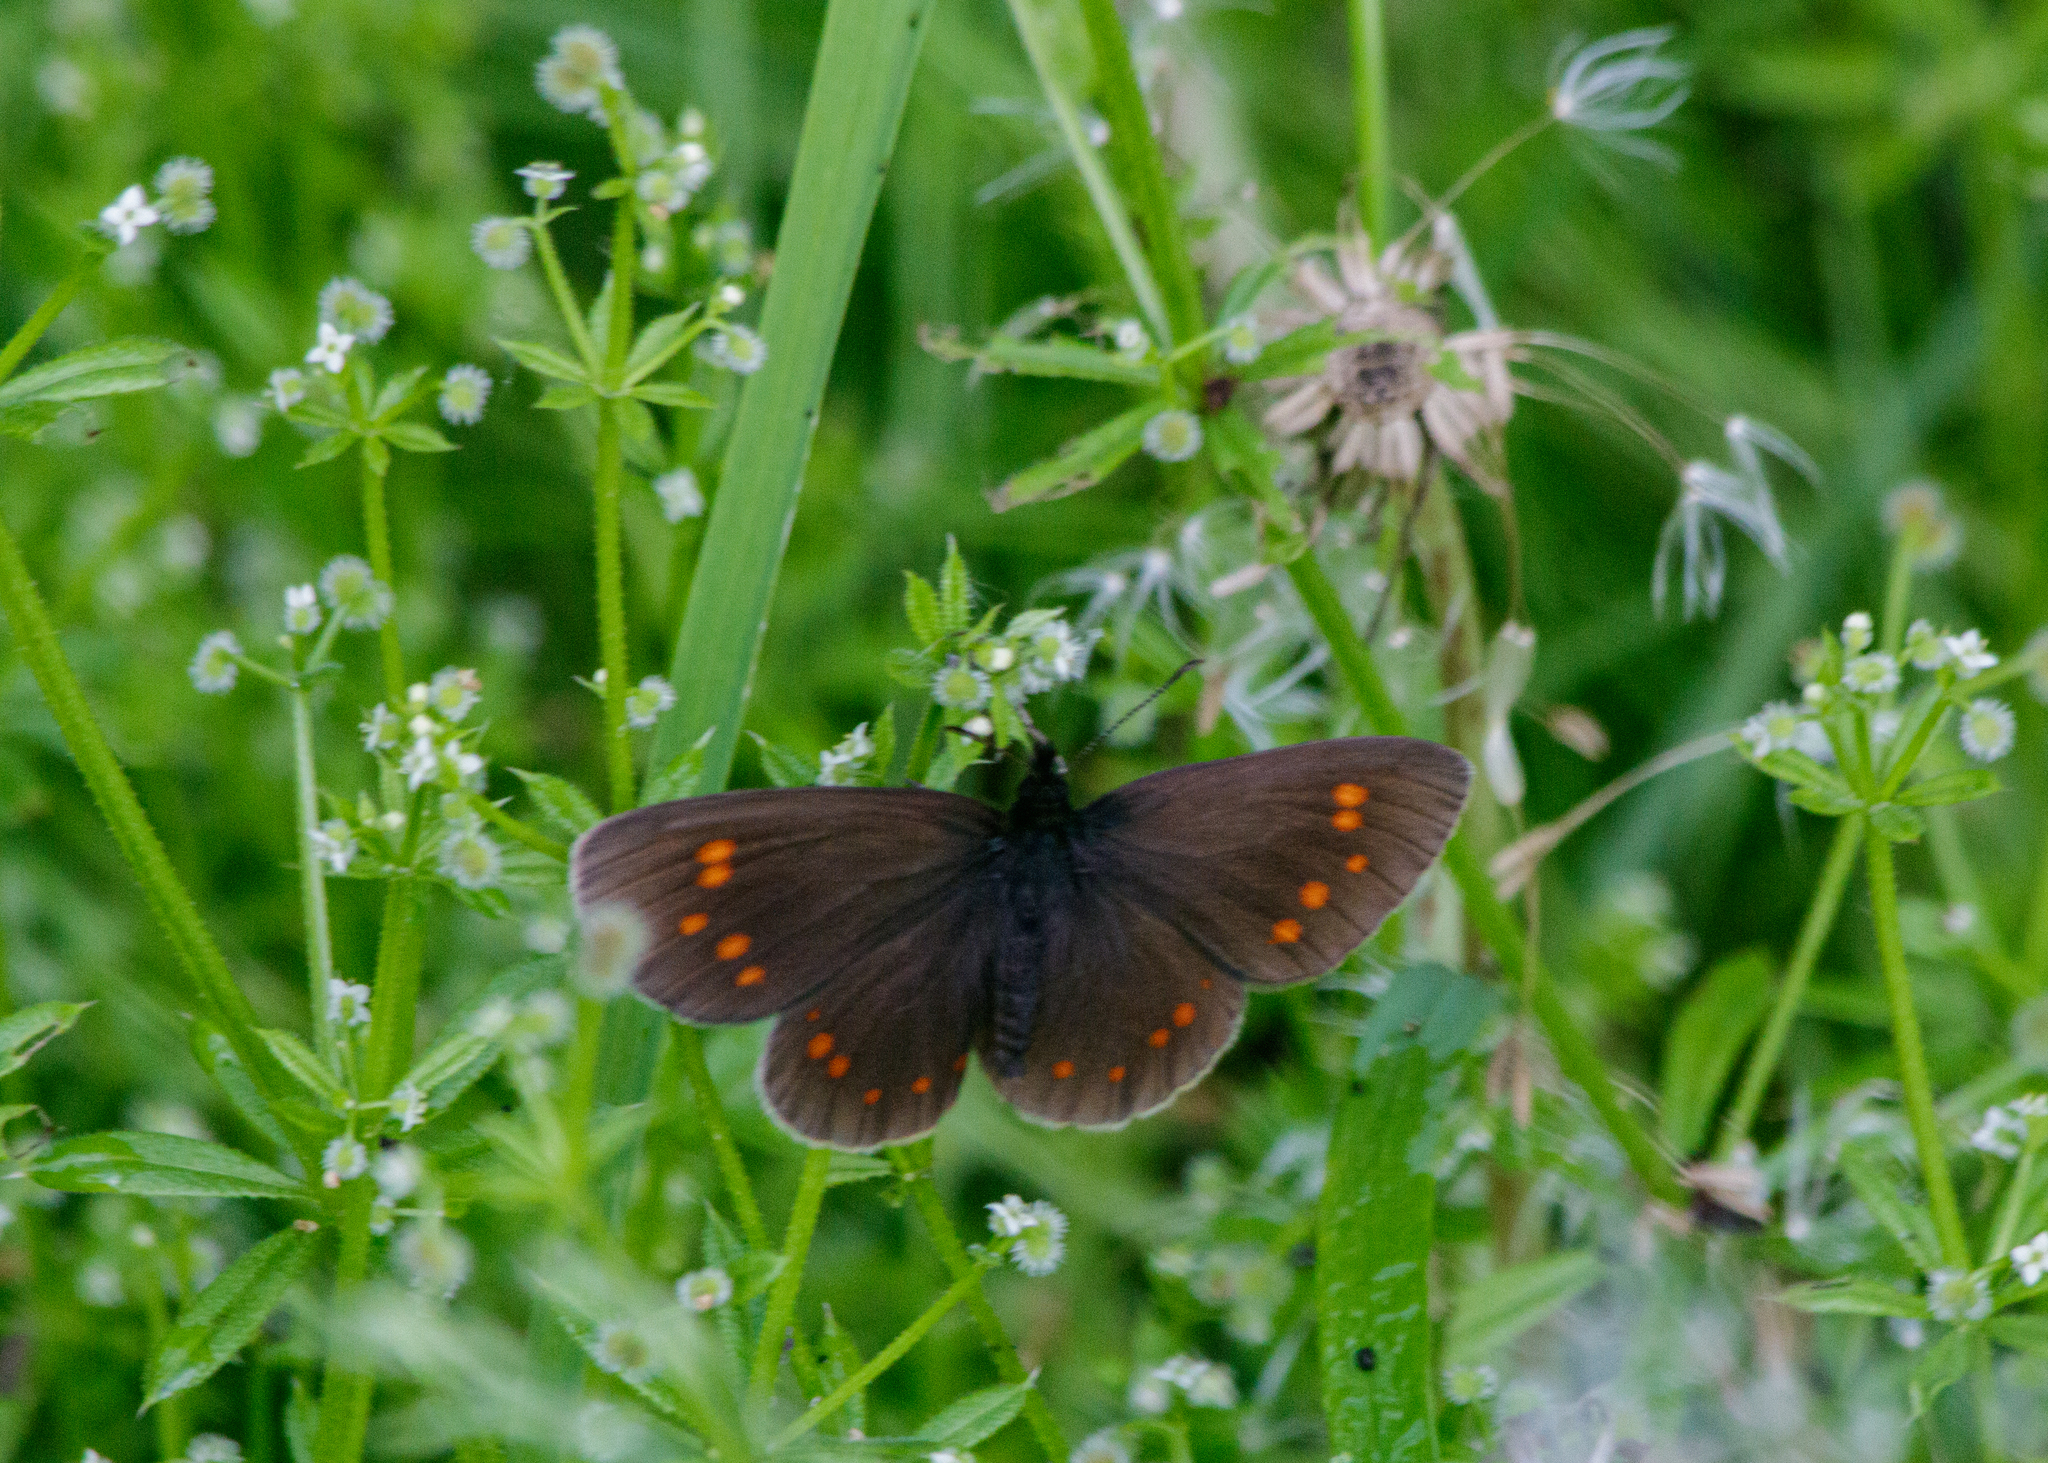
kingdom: Animalia
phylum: Arthropoda
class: Insecta
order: Lepidoptera
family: Nymphalidae
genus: Erebia
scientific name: Erebia turanica
